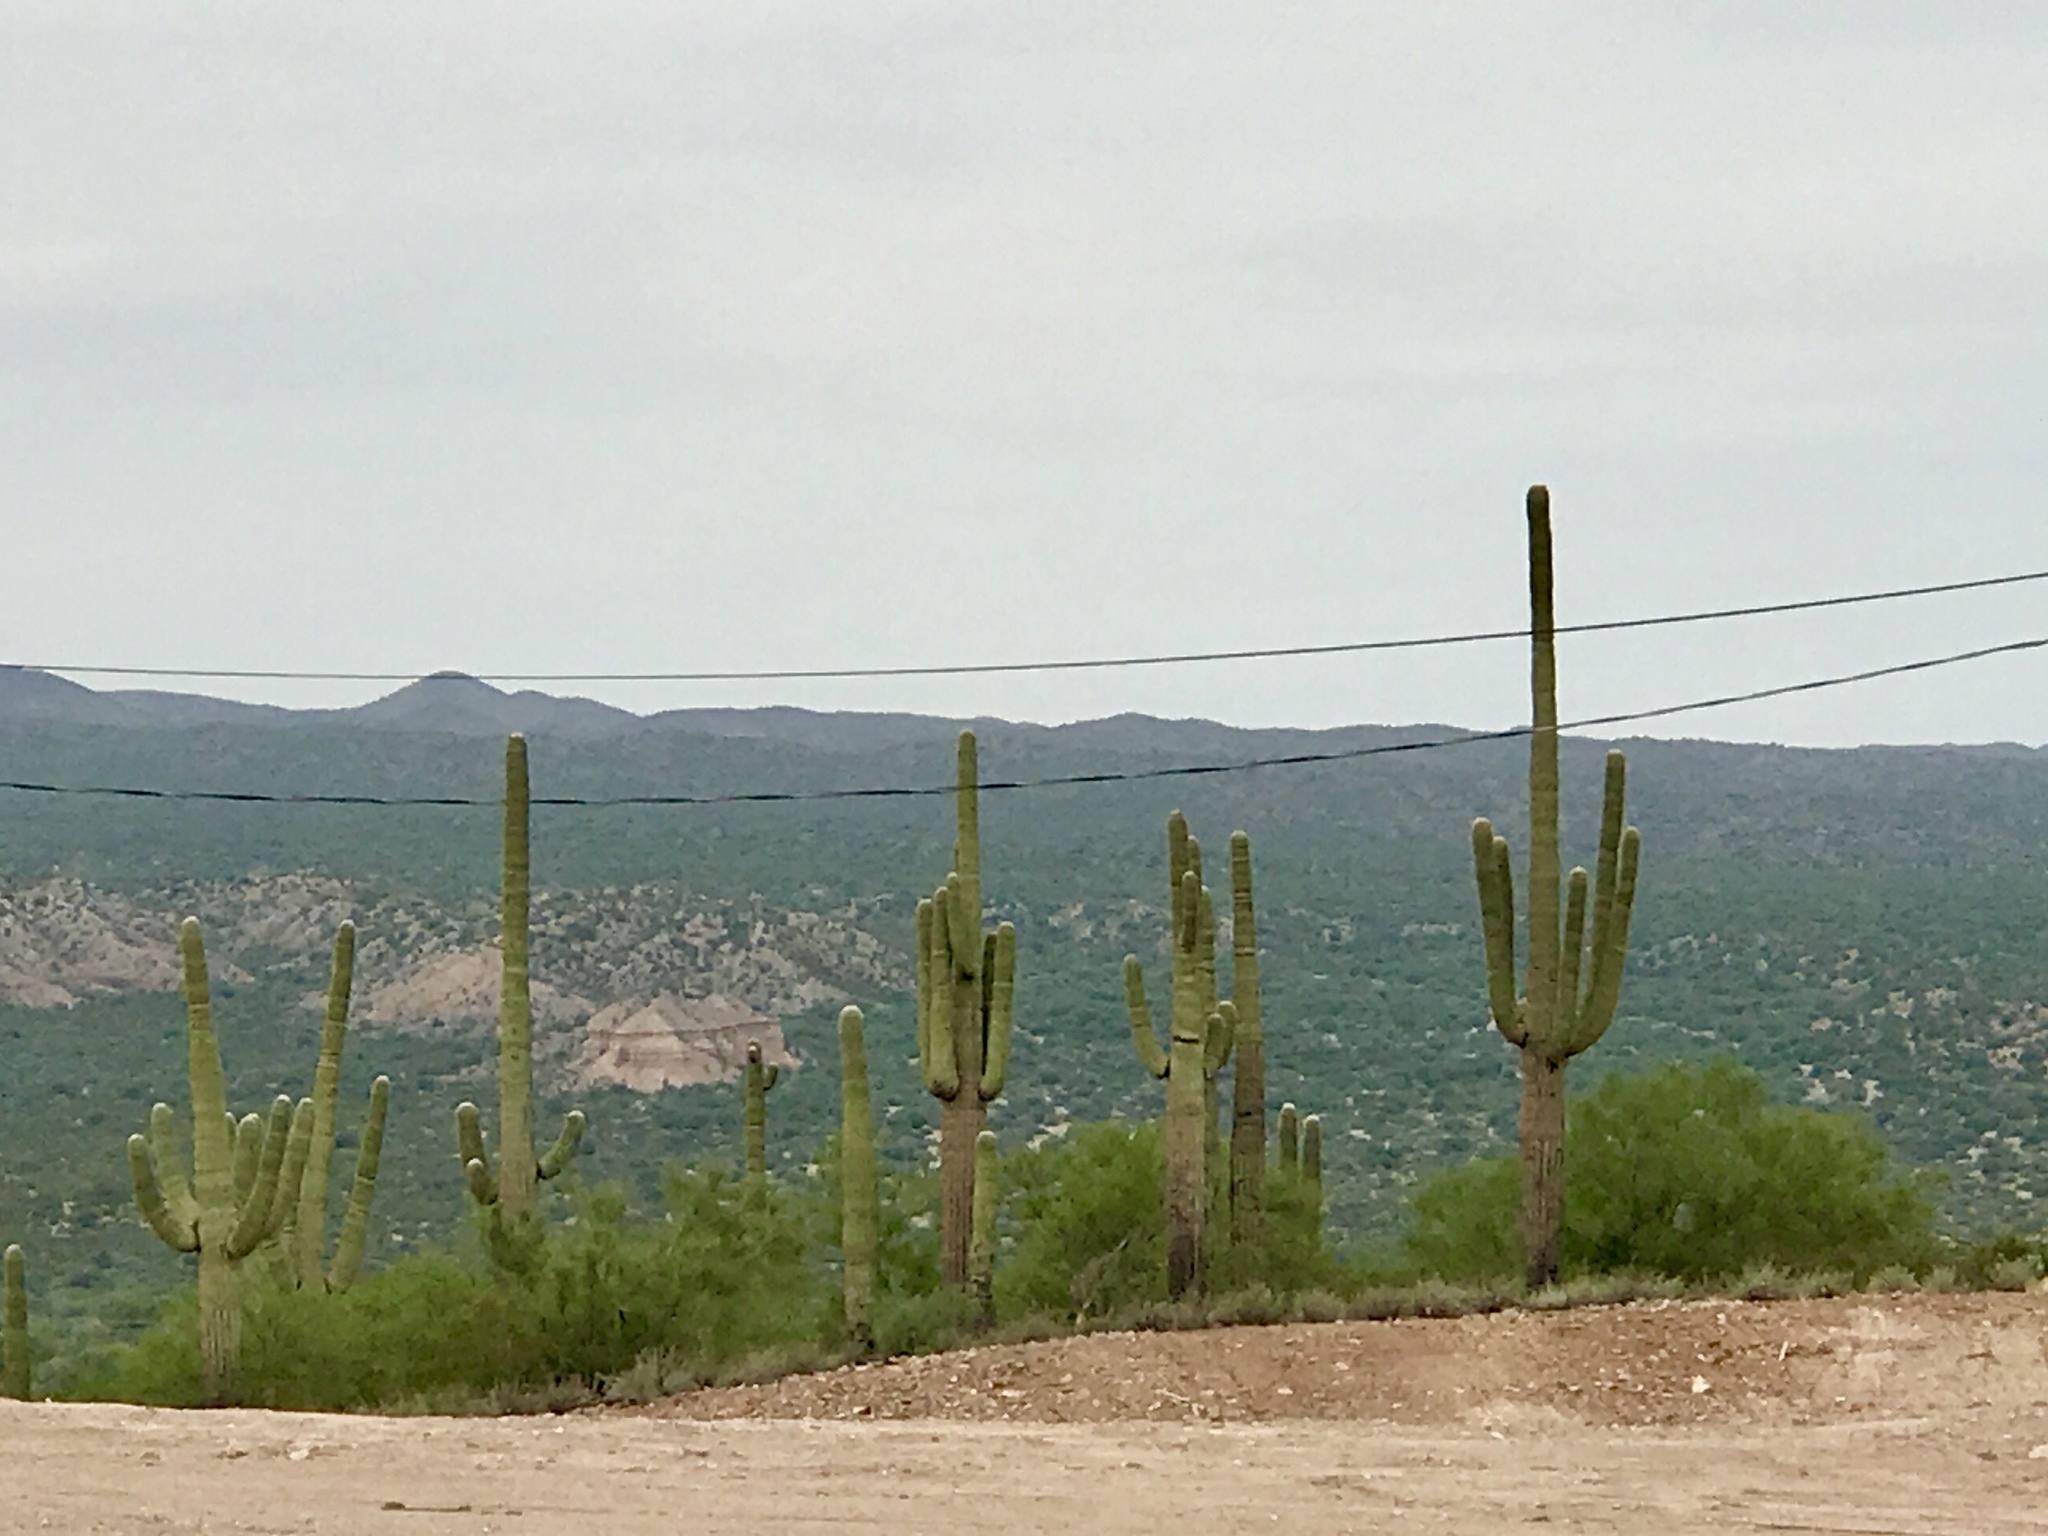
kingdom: Plantae
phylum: Tracheophyta
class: Magnoliopsida
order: Caryophyllales
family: Cactaceae
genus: Carnegiea
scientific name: Carnegiea gigantea
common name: Saguaro
